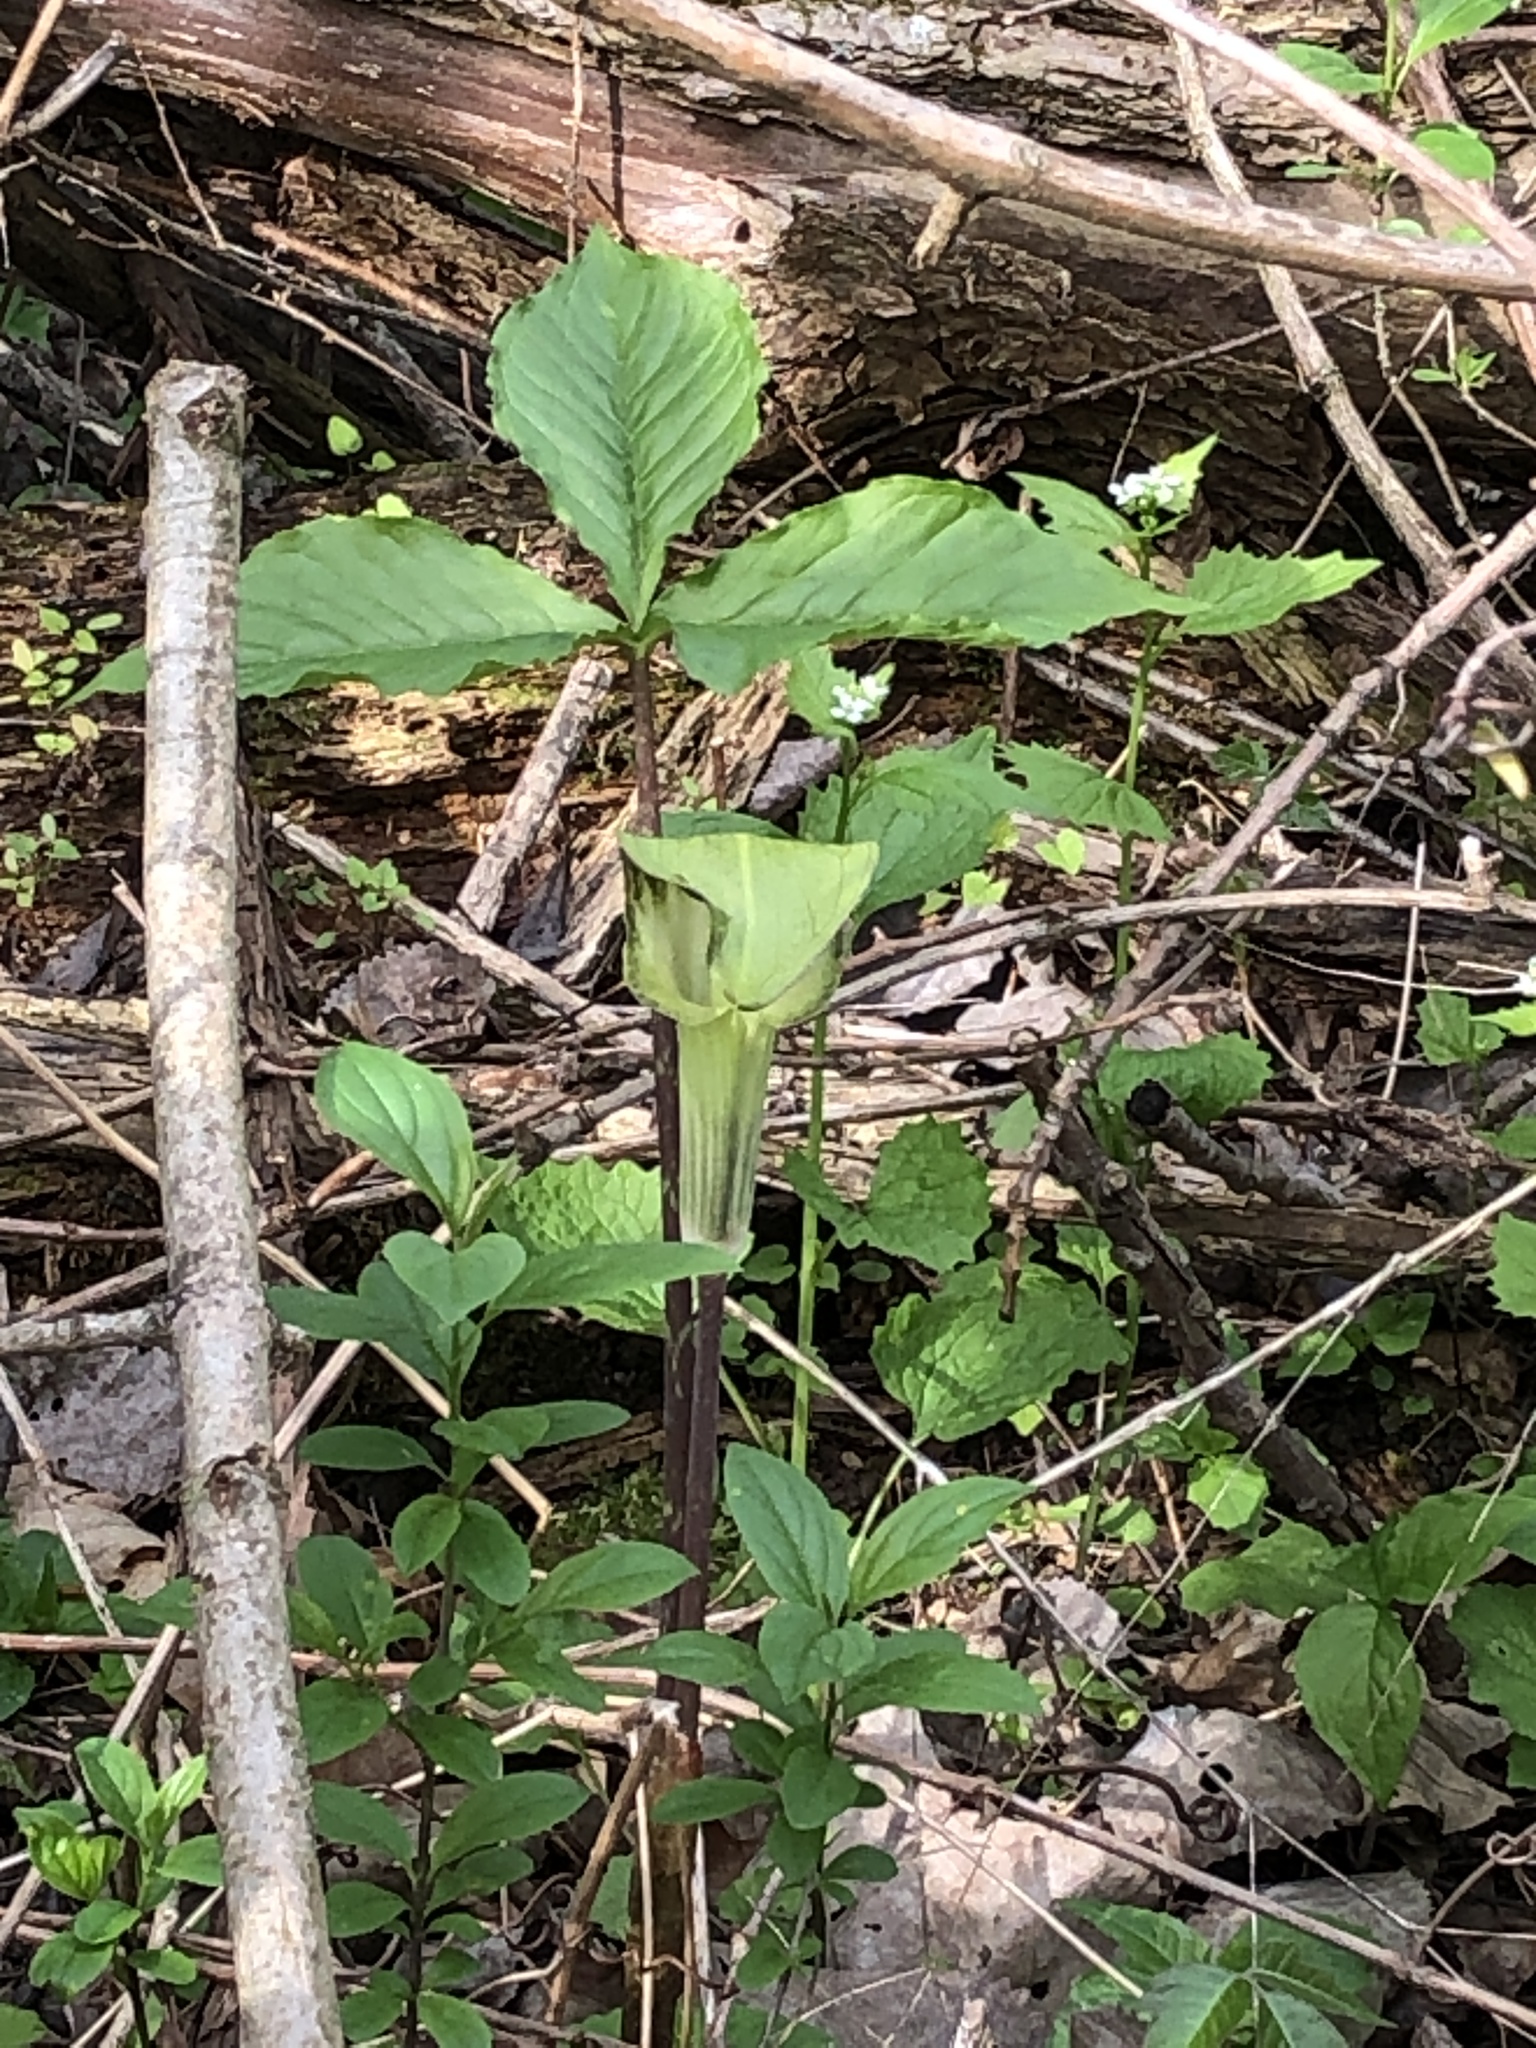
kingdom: Plantae
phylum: Tracheophyta
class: Liliopsida
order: Alismatales
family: Araceae
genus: Arisaema
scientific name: Arisaema triphyllum
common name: Jack-in-the-pulpit
